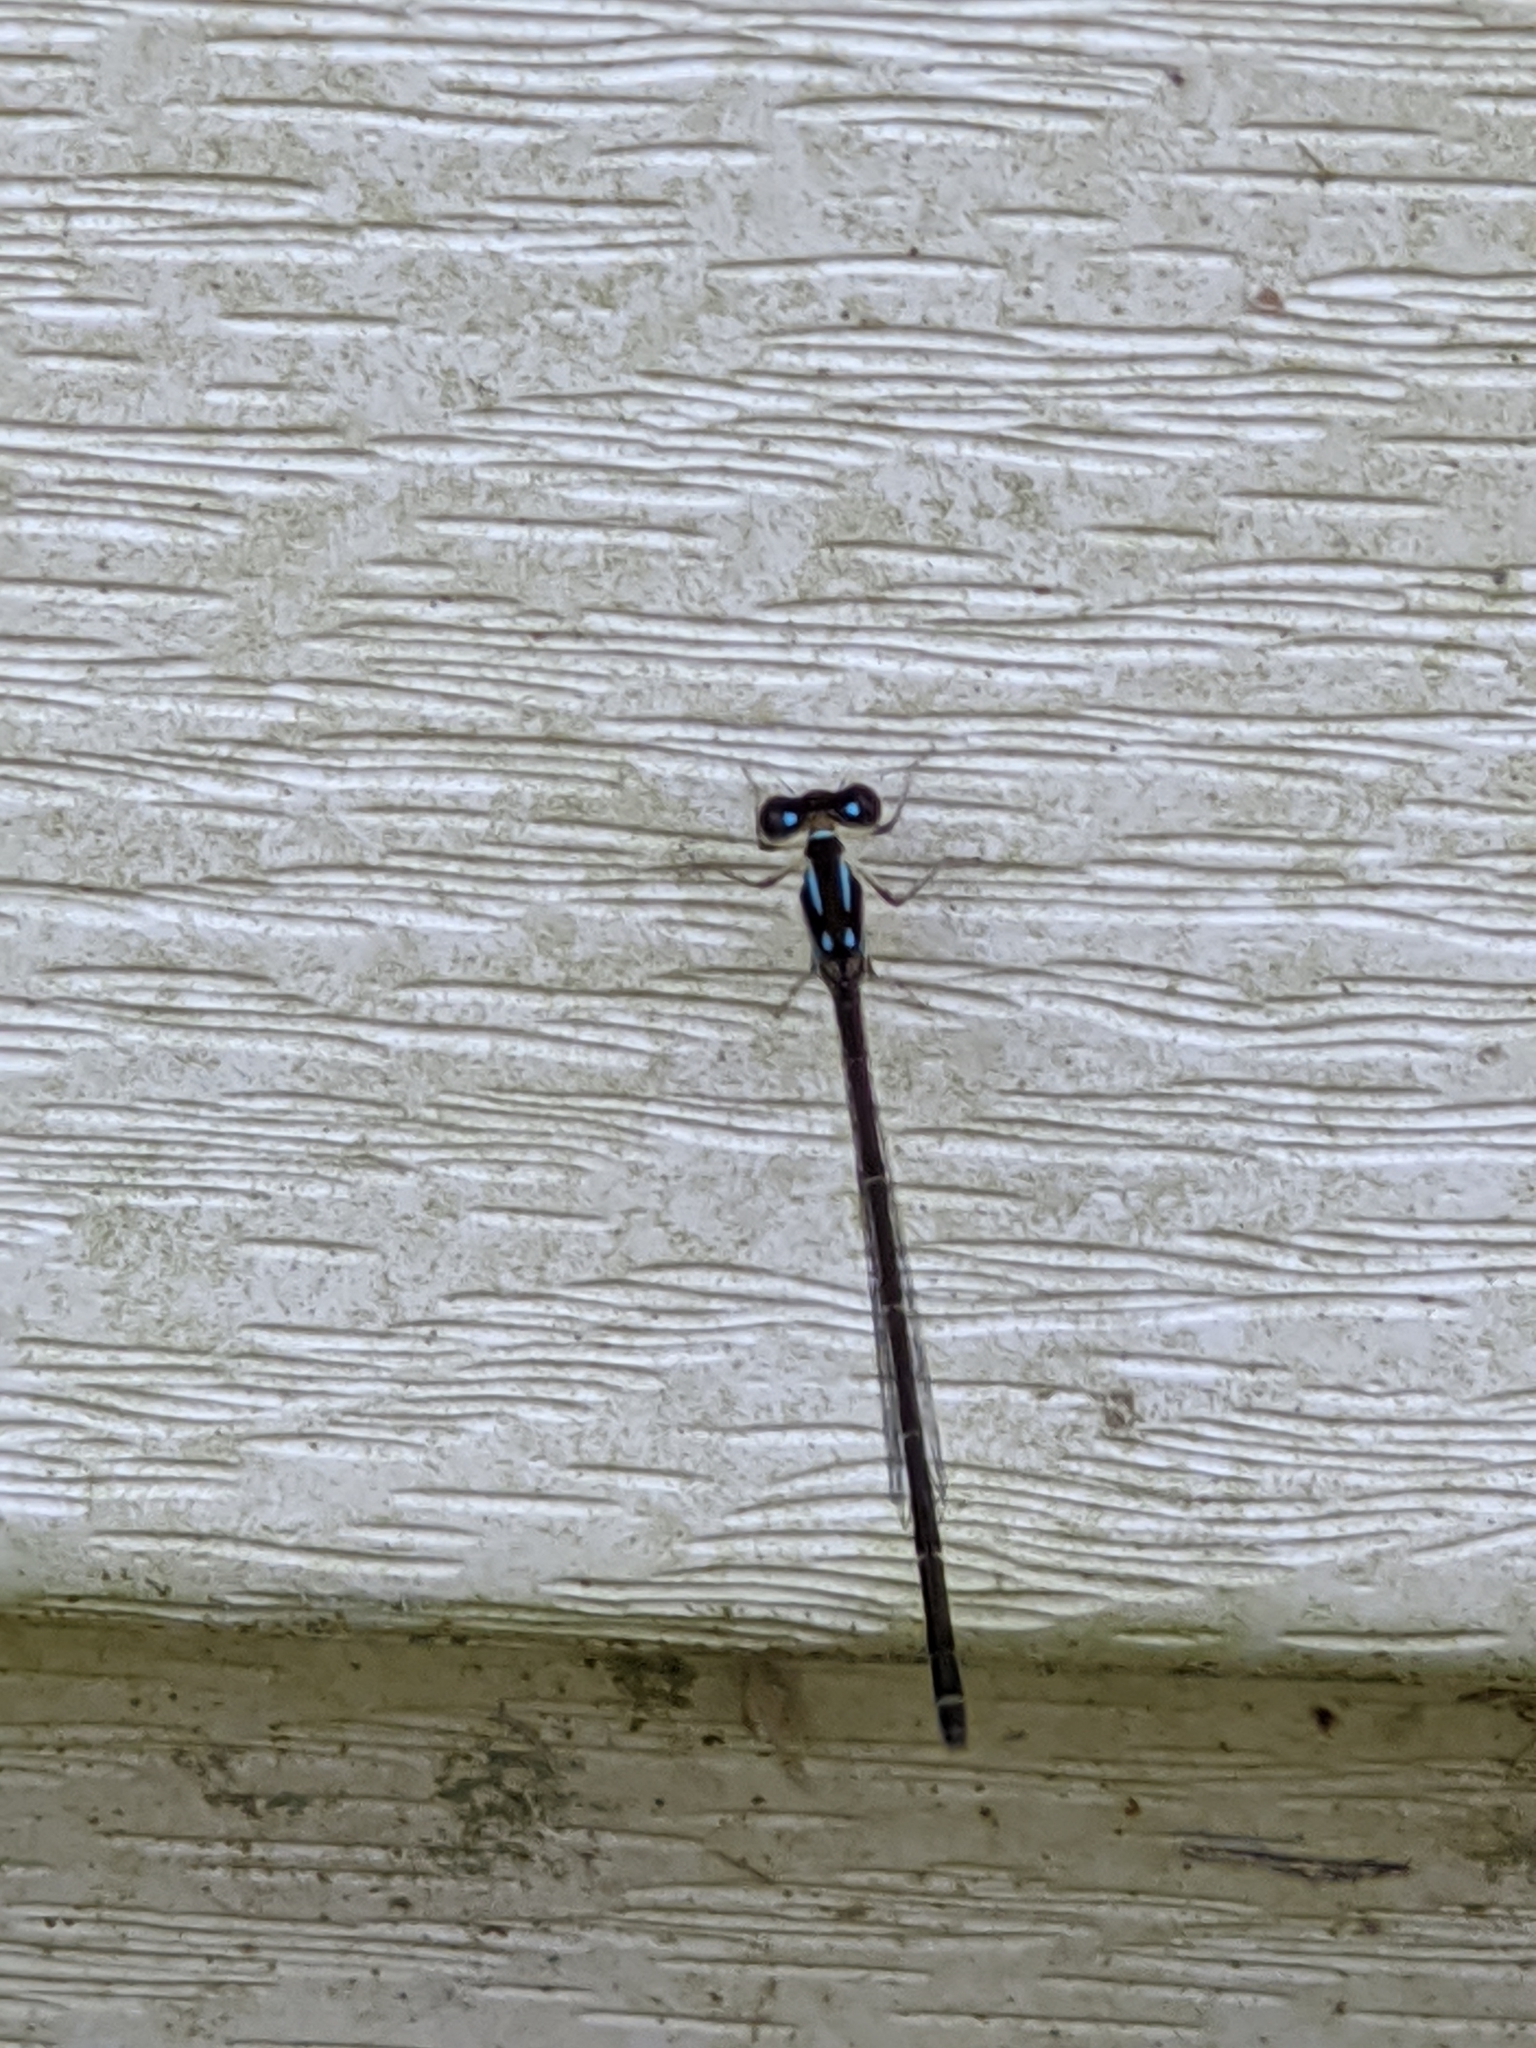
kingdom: Animalia
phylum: Arthropoda
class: Insecta
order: Odonata
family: Coenagrionidae
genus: Ischnura
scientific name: Ischnura posita
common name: Fragile forktail
